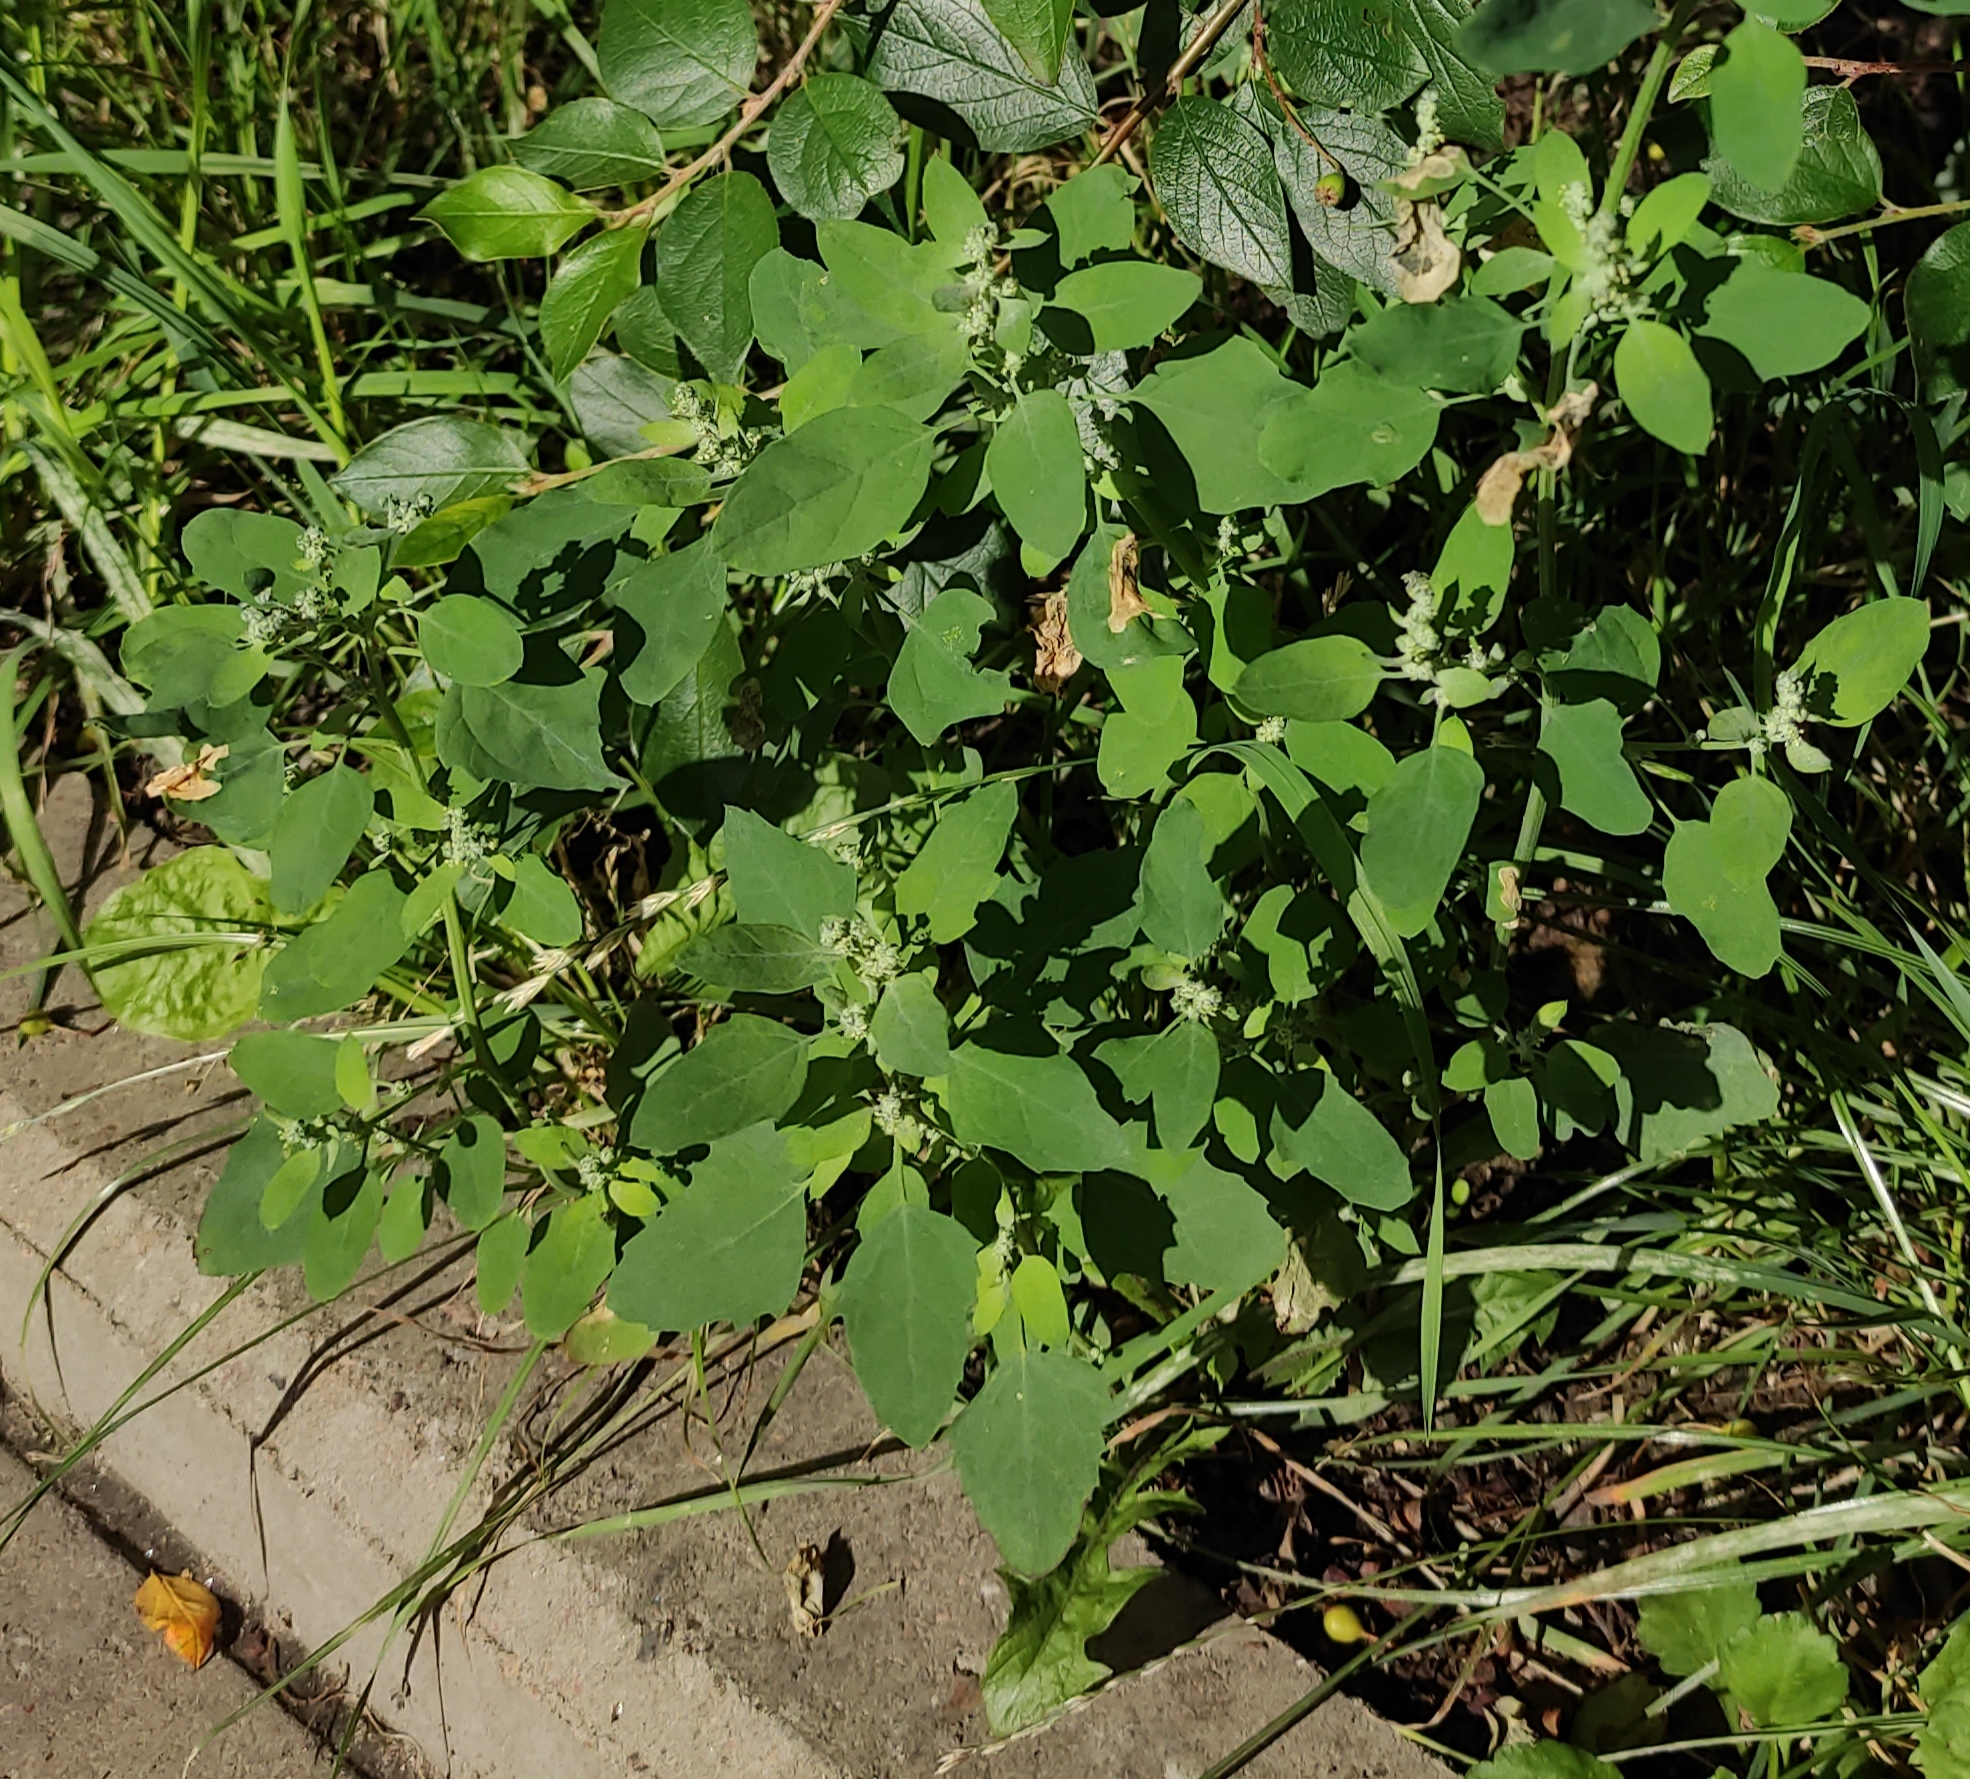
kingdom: Plantae
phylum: Tracheophyta
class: Magnoliopsida
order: Caryophyllales
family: Amaranthaceae
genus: Chenopodium
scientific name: Chenopodium album
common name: Fat-hen
